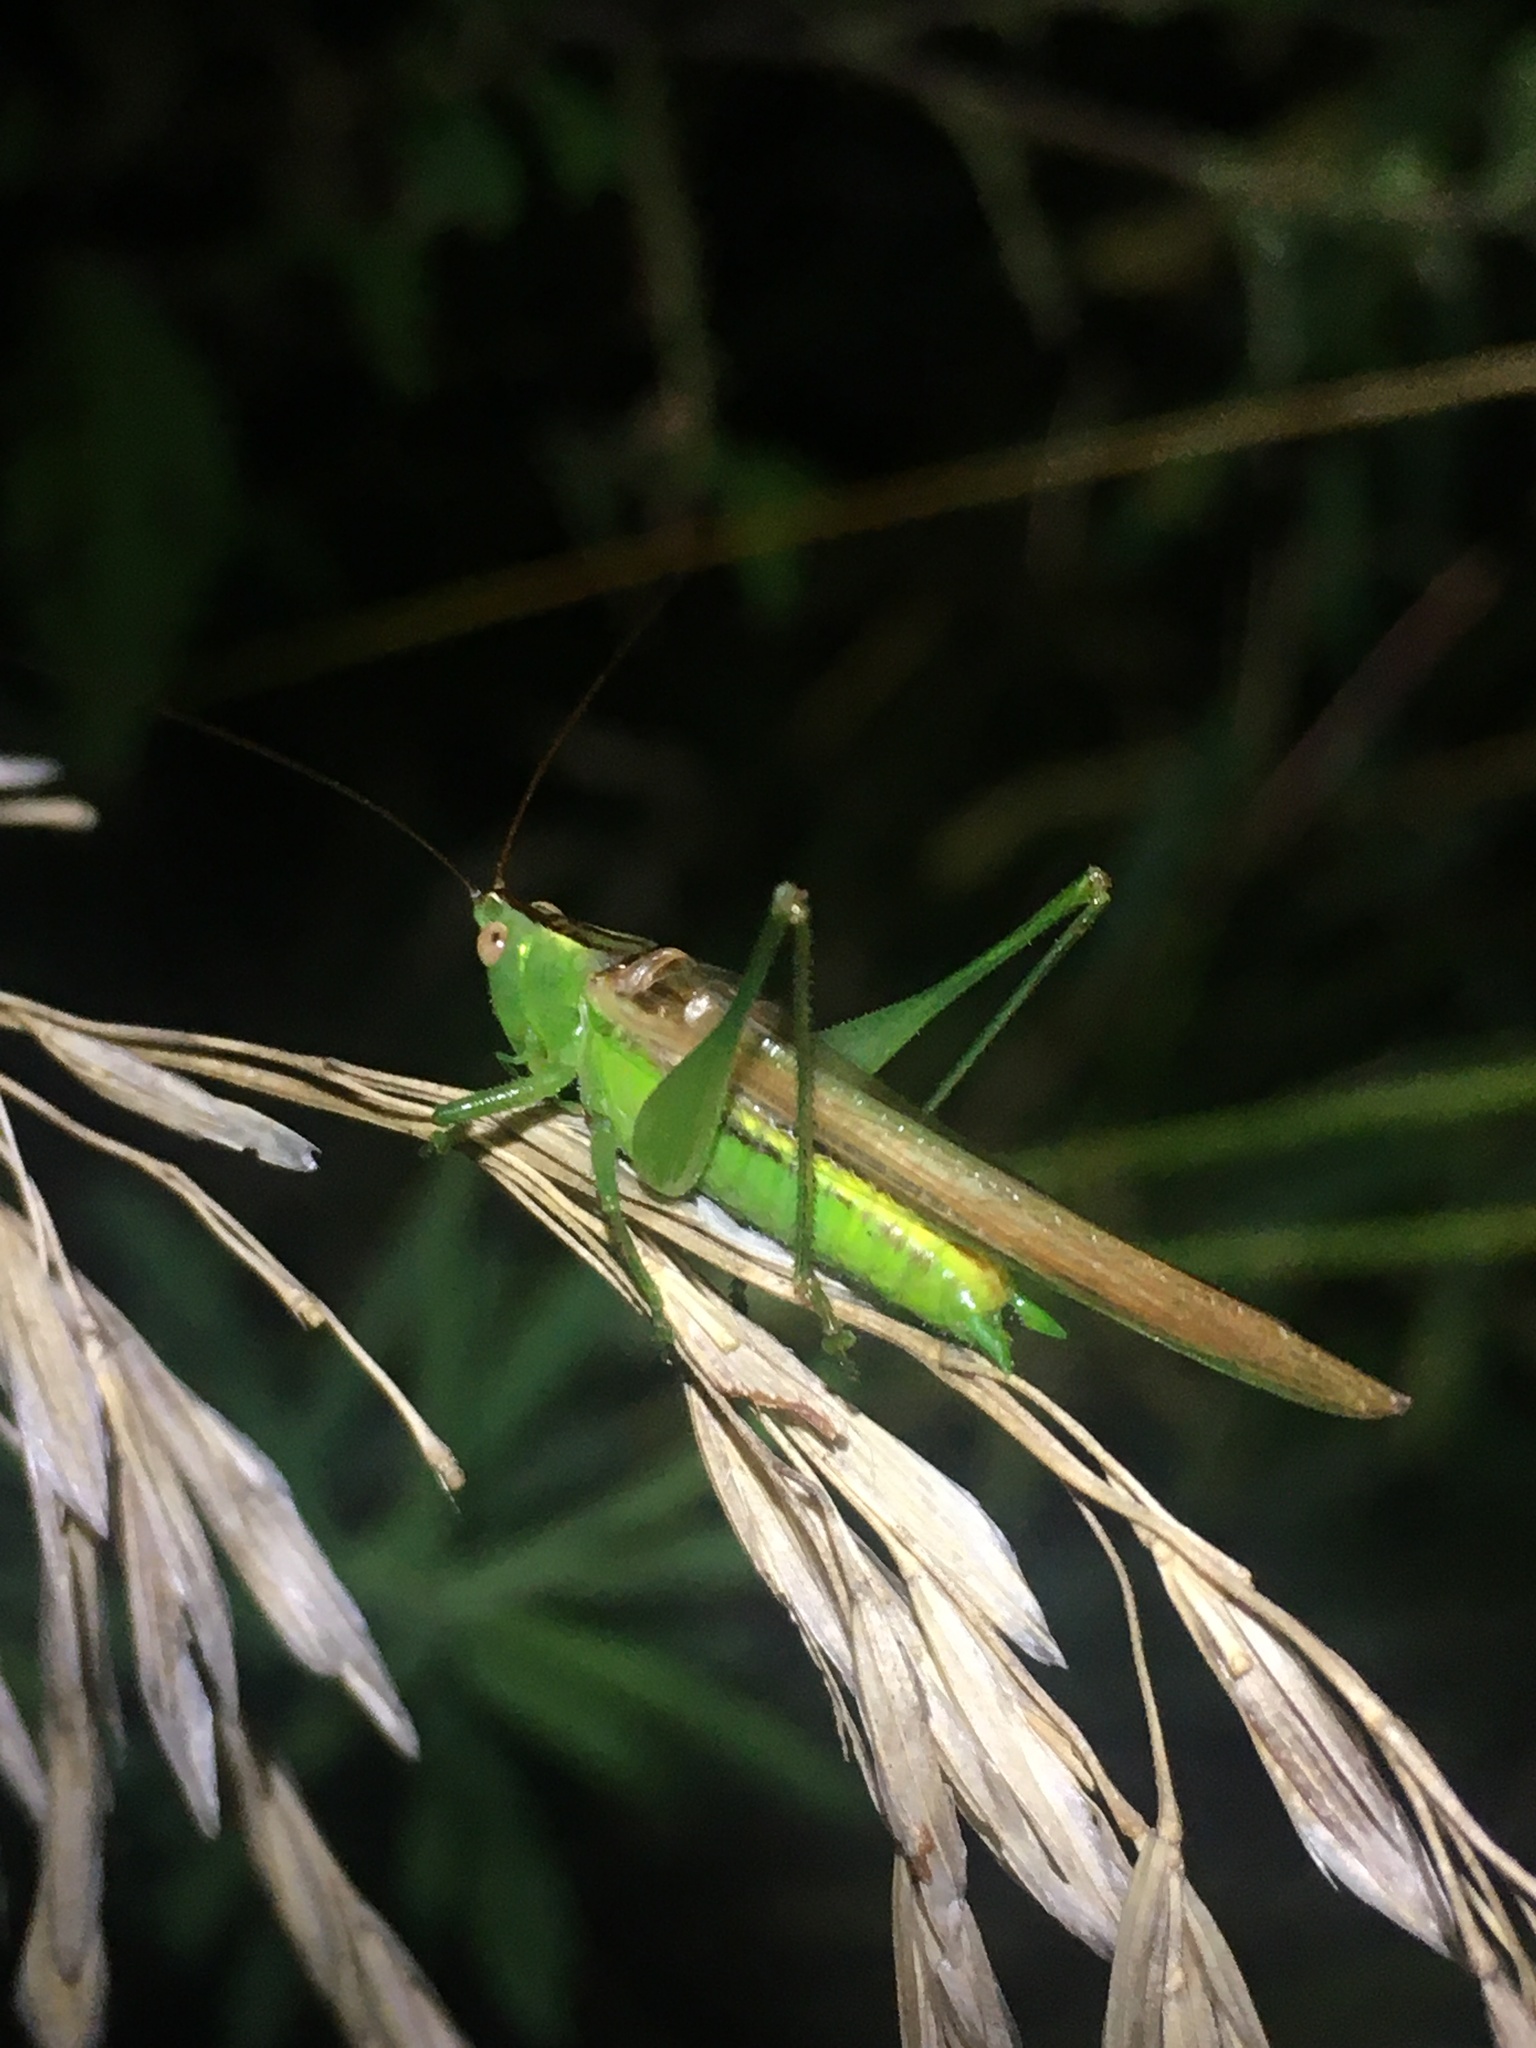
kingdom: Animalia
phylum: Arthropoda
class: Insecta
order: Orthoptera
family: Tettigoniidae
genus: Conocephalus
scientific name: Conocephalus fasciatus
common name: Slender meadow katydid
